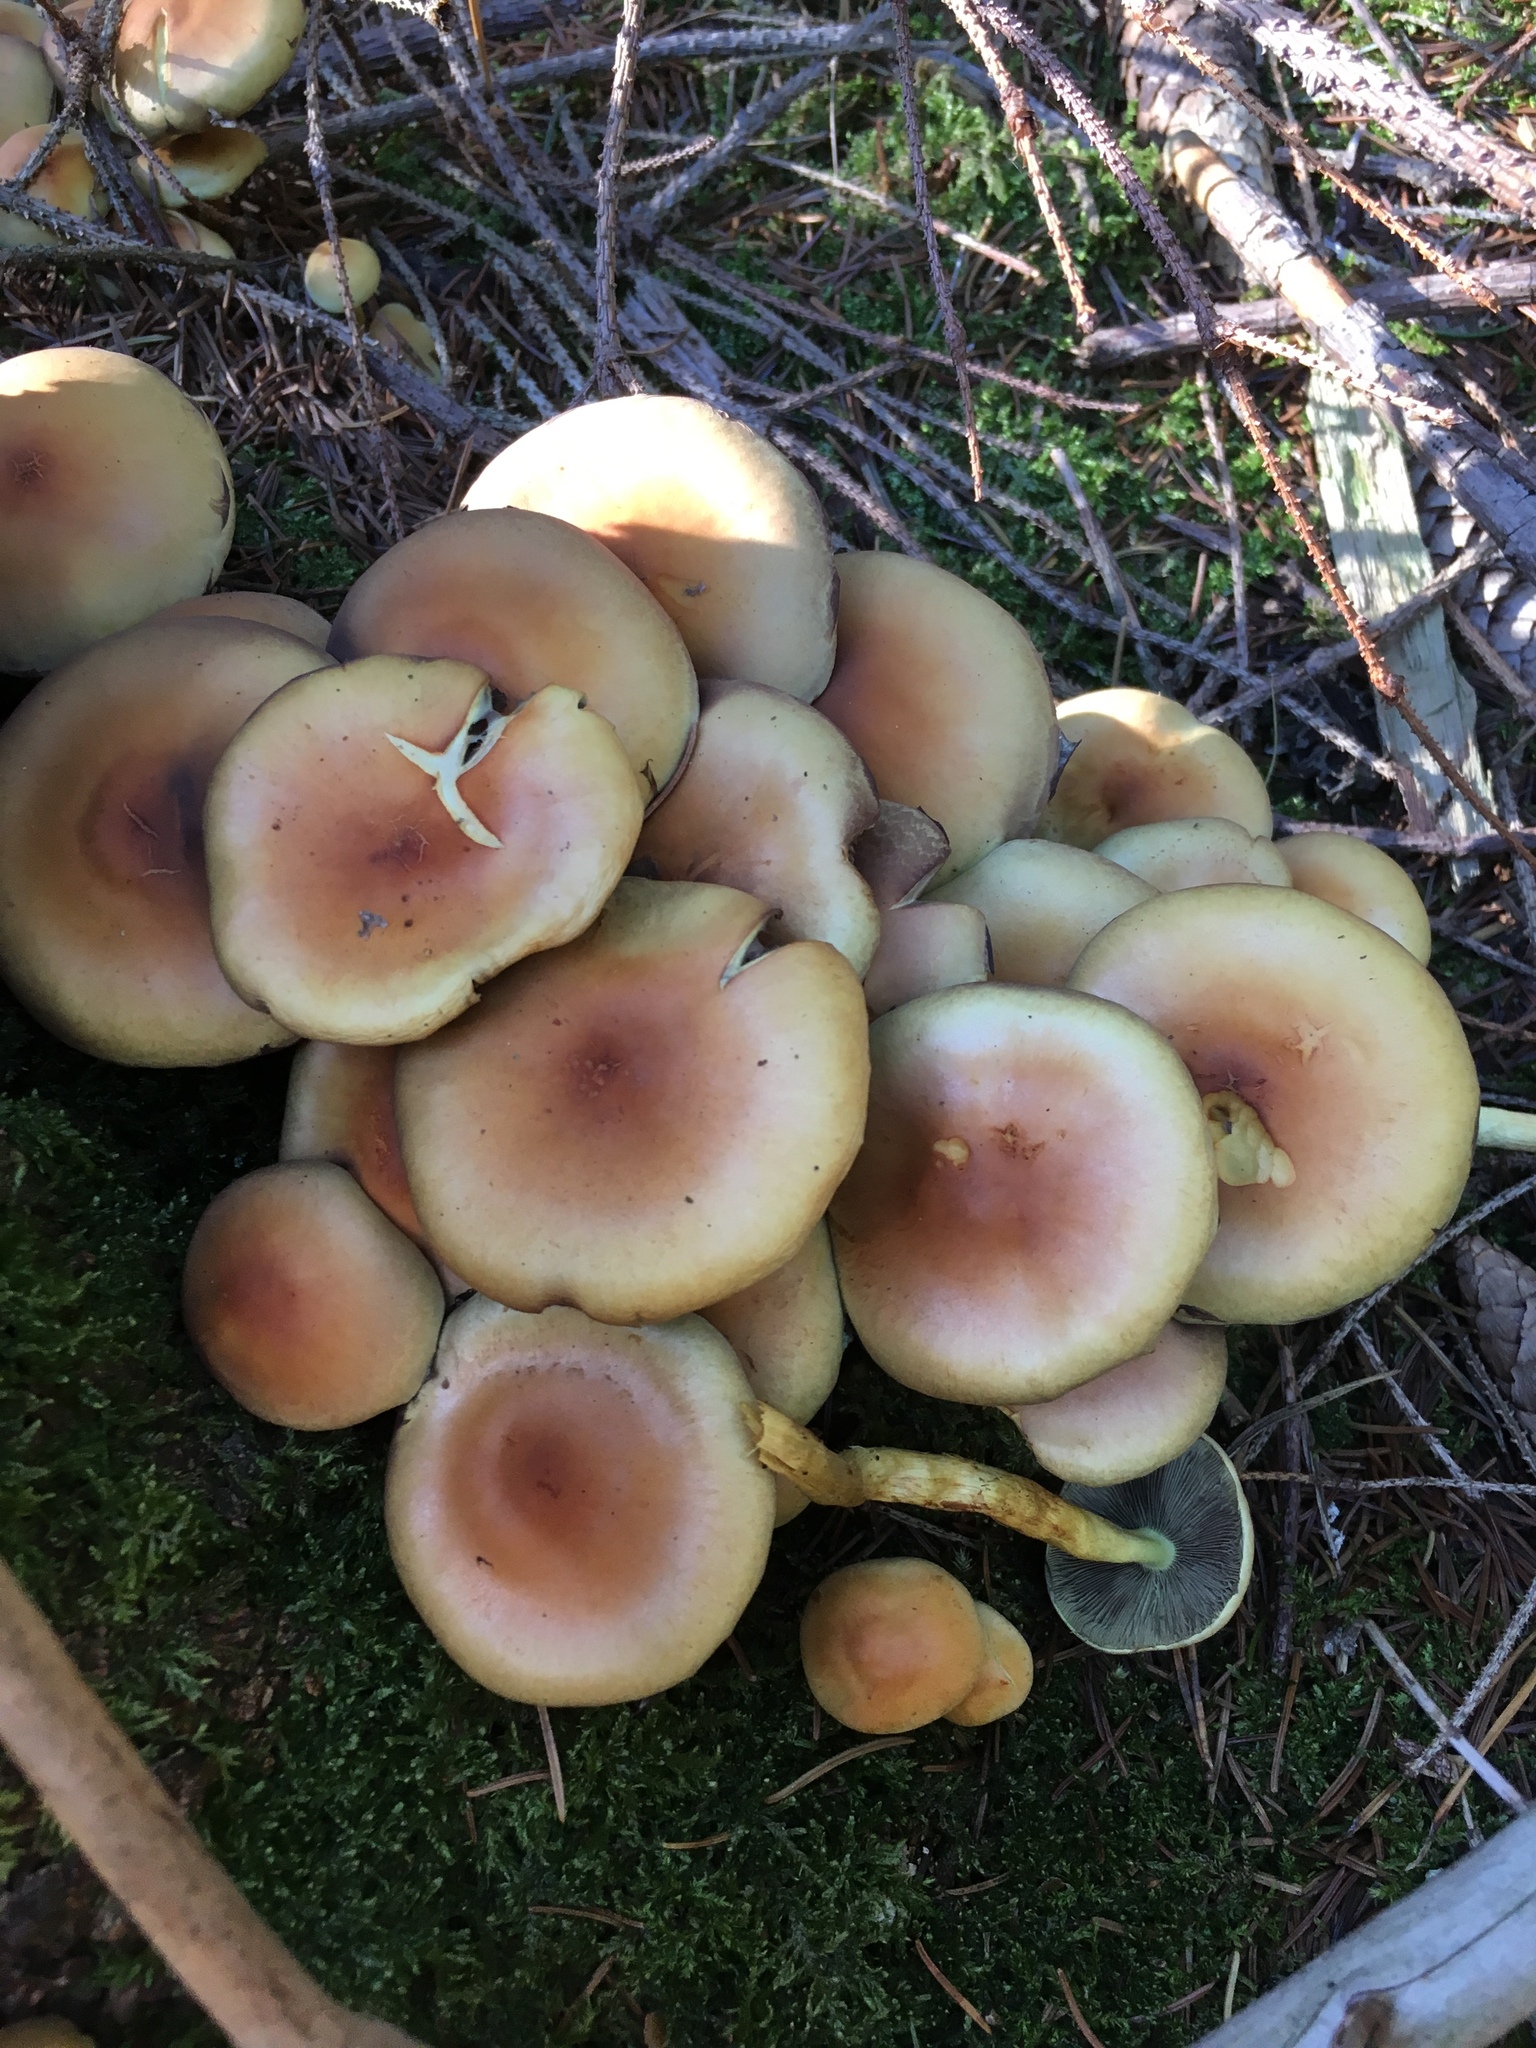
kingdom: Fungi
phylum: Basidiomycota
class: Agaricomycetes
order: Agaricales
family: Strophariaceae
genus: Hypholoma
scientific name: Hypholoma fasciculare
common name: Sulphur tuft
